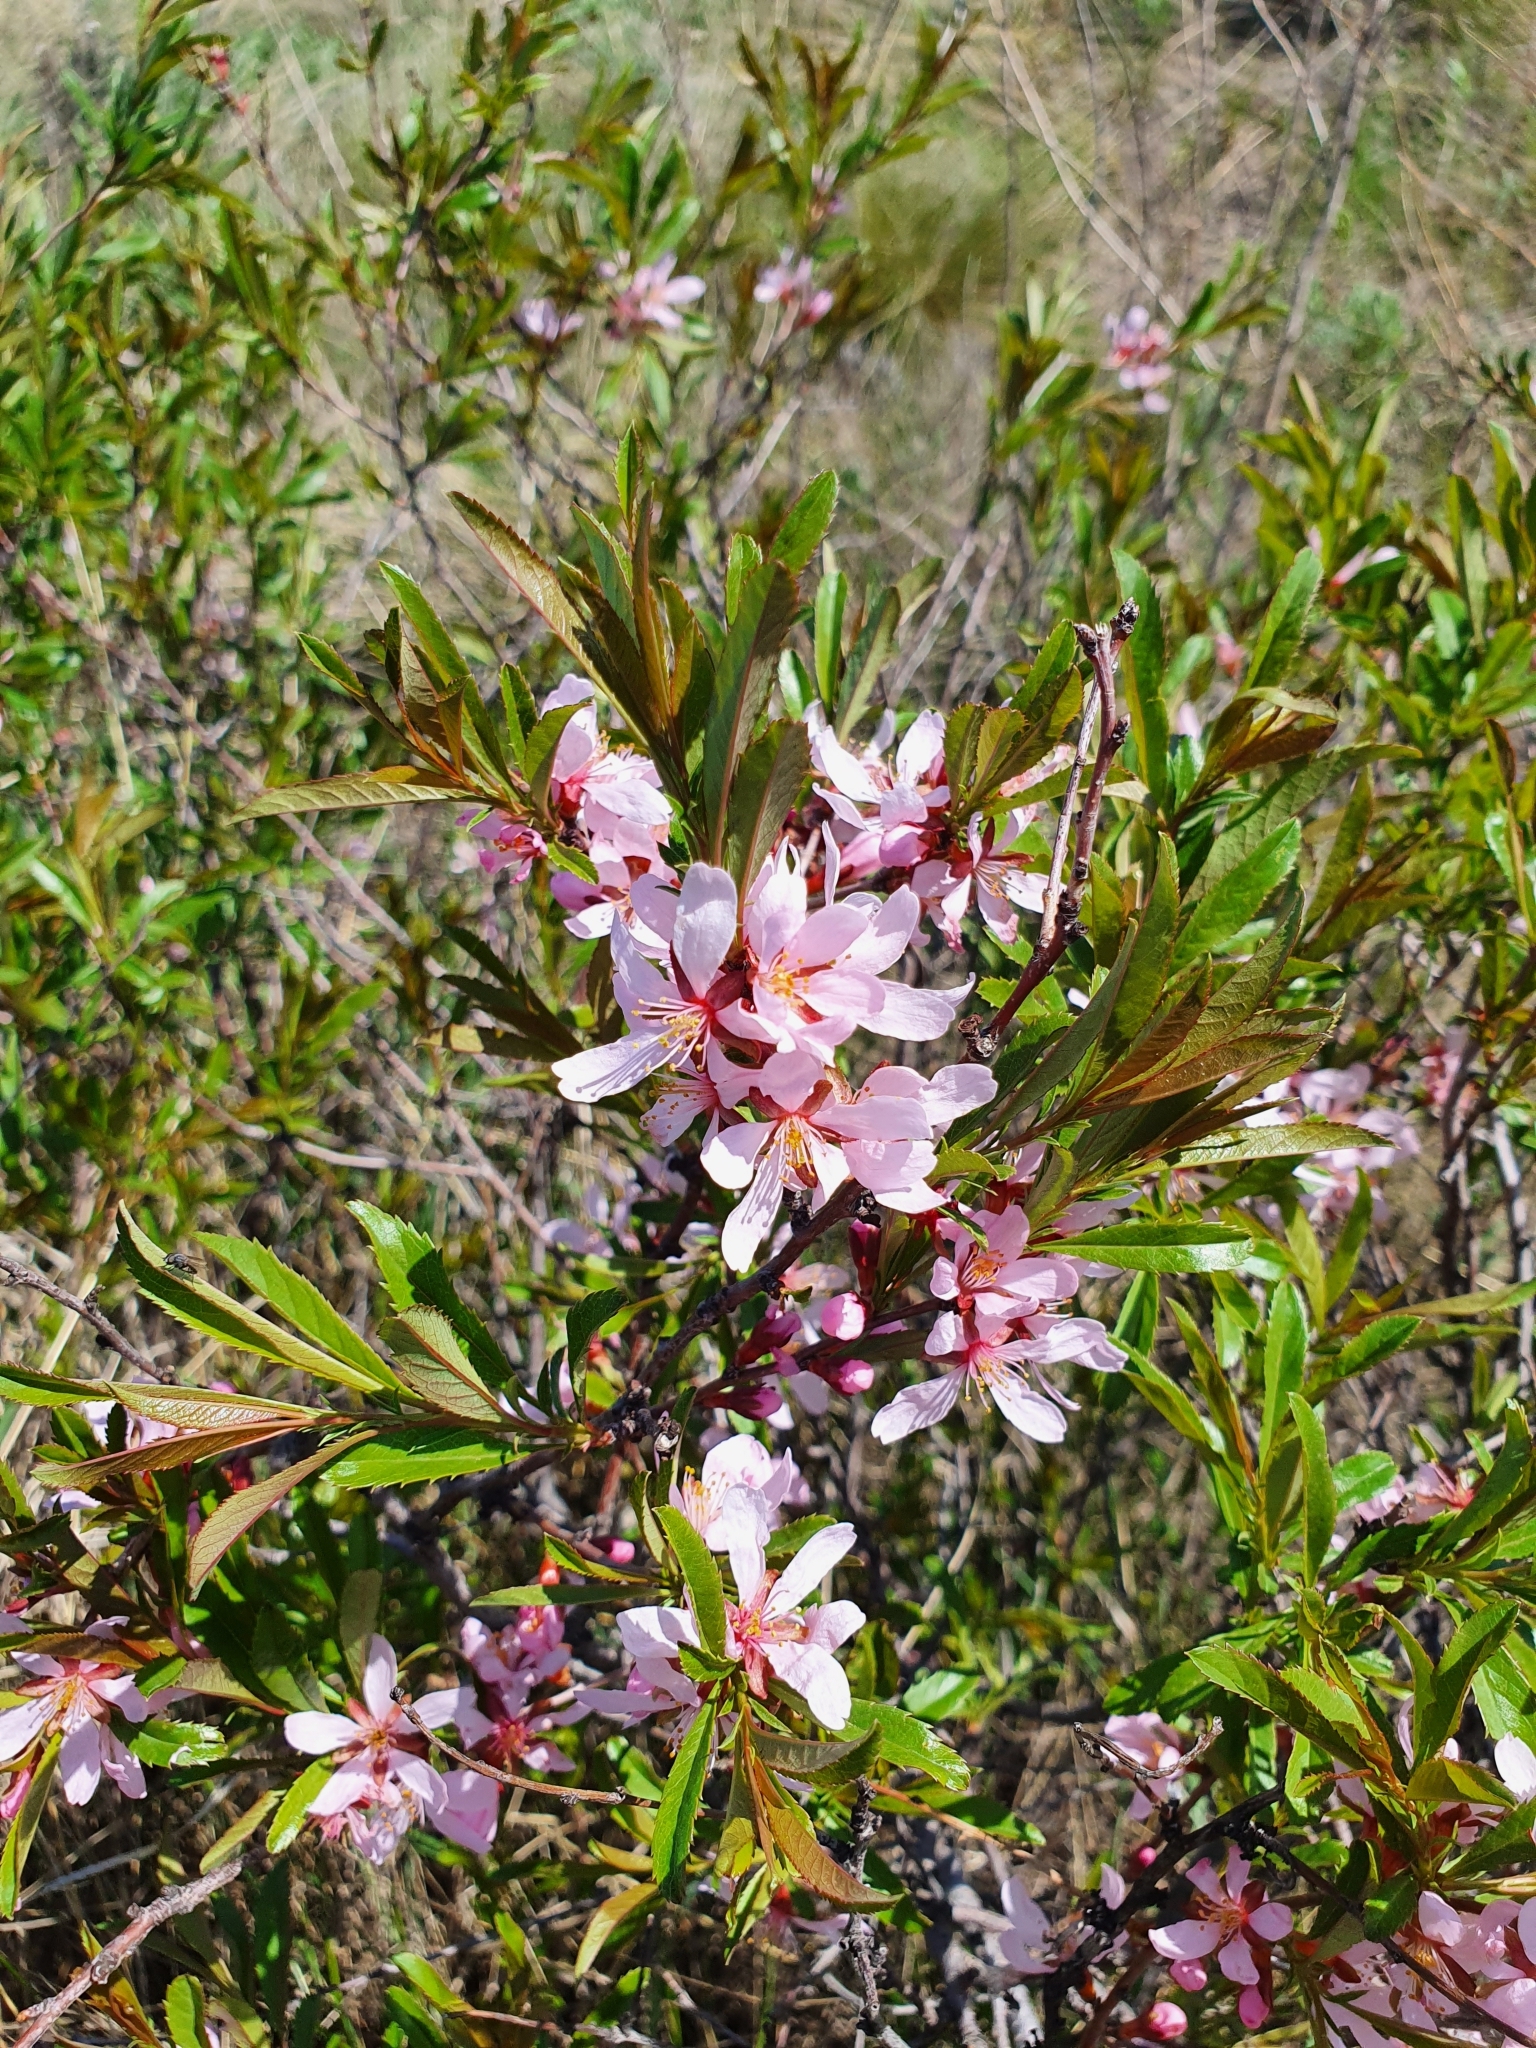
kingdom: Plantae
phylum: Tracheophyta
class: Magnoliopsida
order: Rosales
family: Rosaceae
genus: Prunus
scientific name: Prunus tenella
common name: Dwarf russian almond
